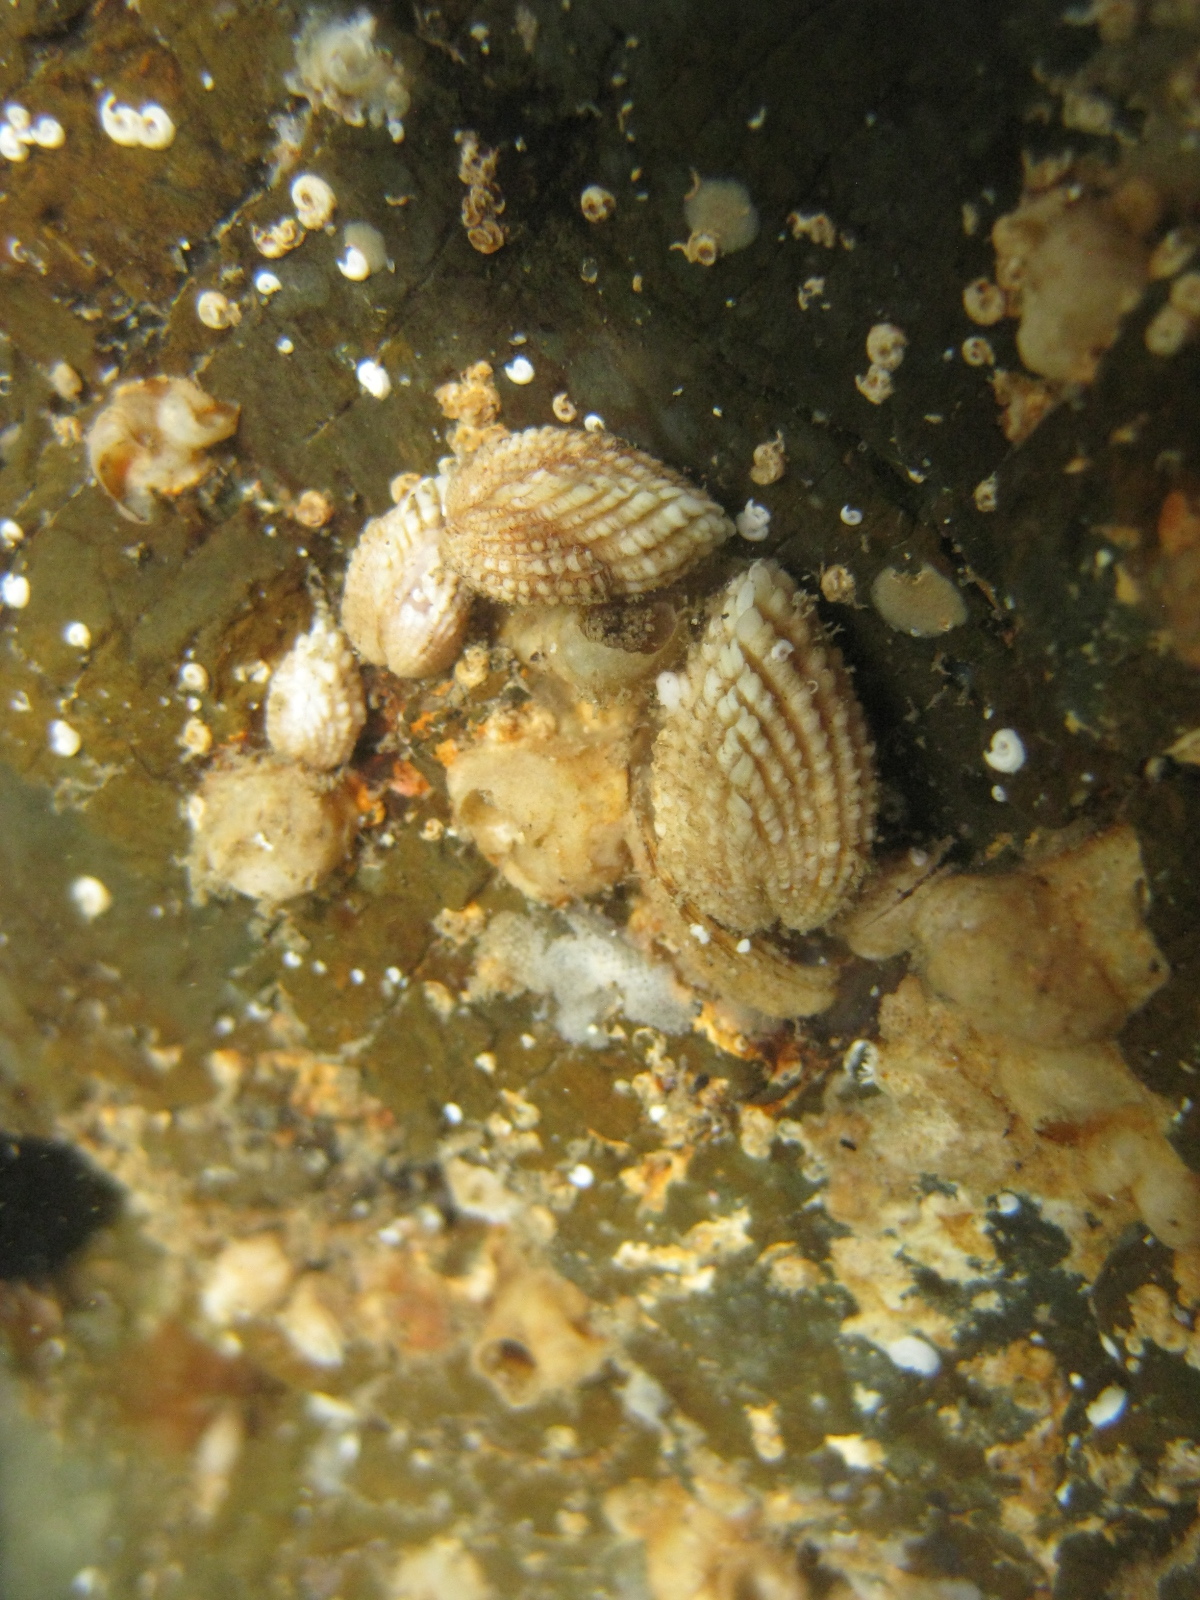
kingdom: Animalia
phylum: Mollusca
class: Bivalvia
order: Carditida
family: Carditidae
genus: Powellina
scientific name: Powellina brookesi
